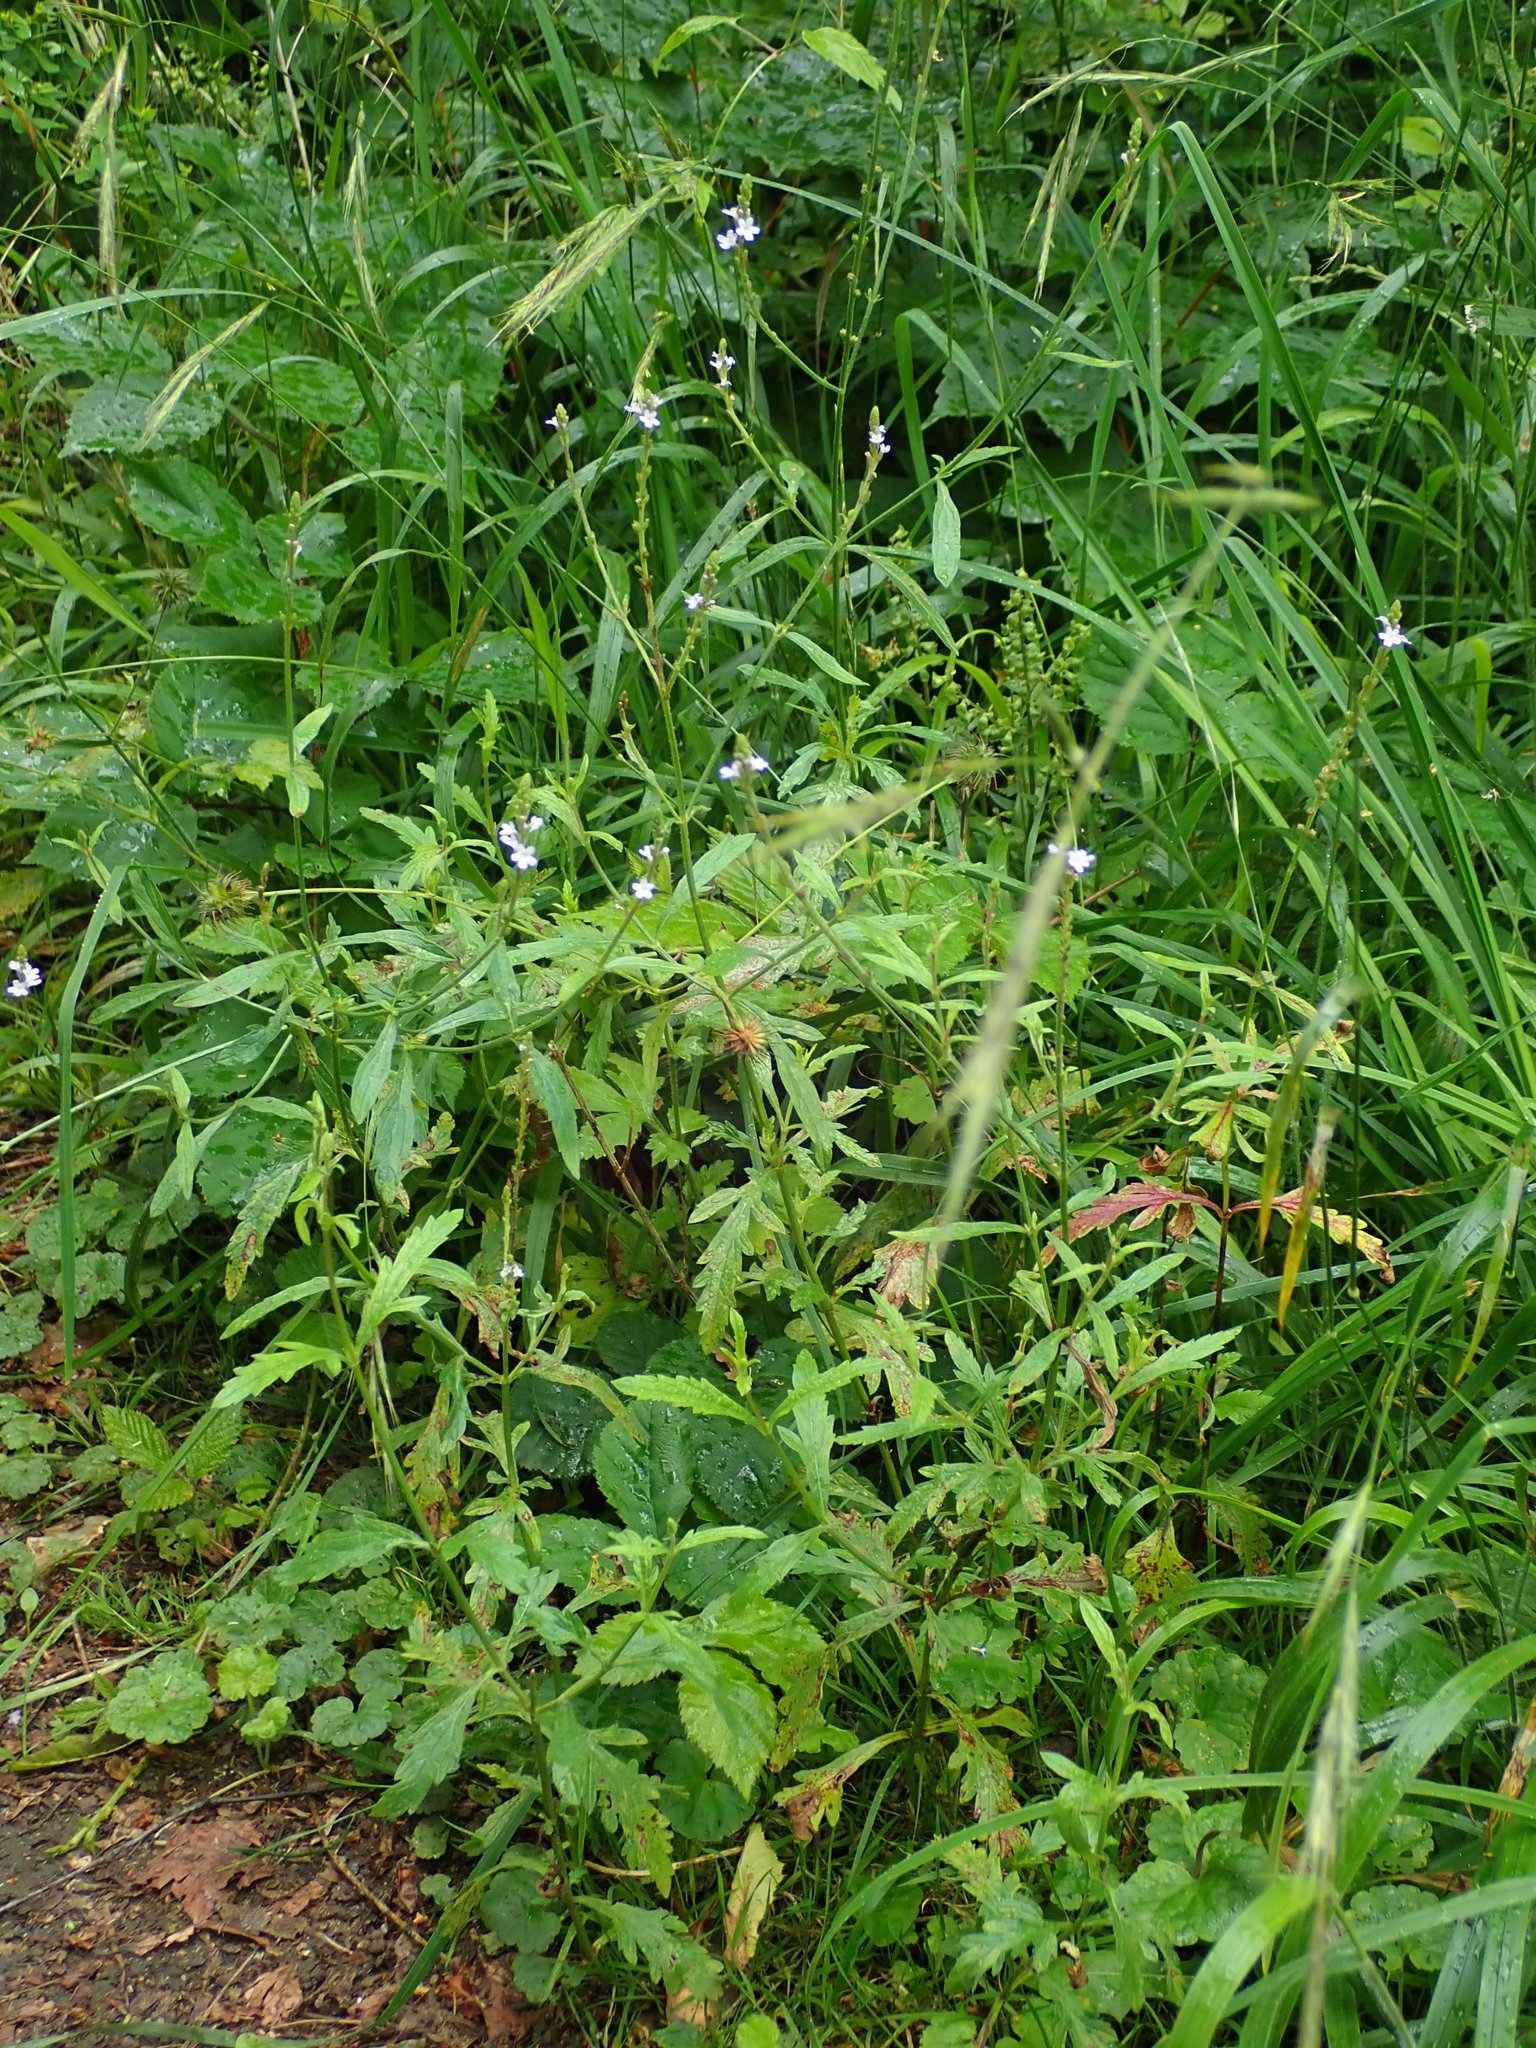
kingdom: Plantae
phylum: Tracheophyta
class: Magnoliopsida
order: Lamiales
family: Verbenaceae
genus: Verbena
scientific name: Verbena officinalis
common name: Vervain
